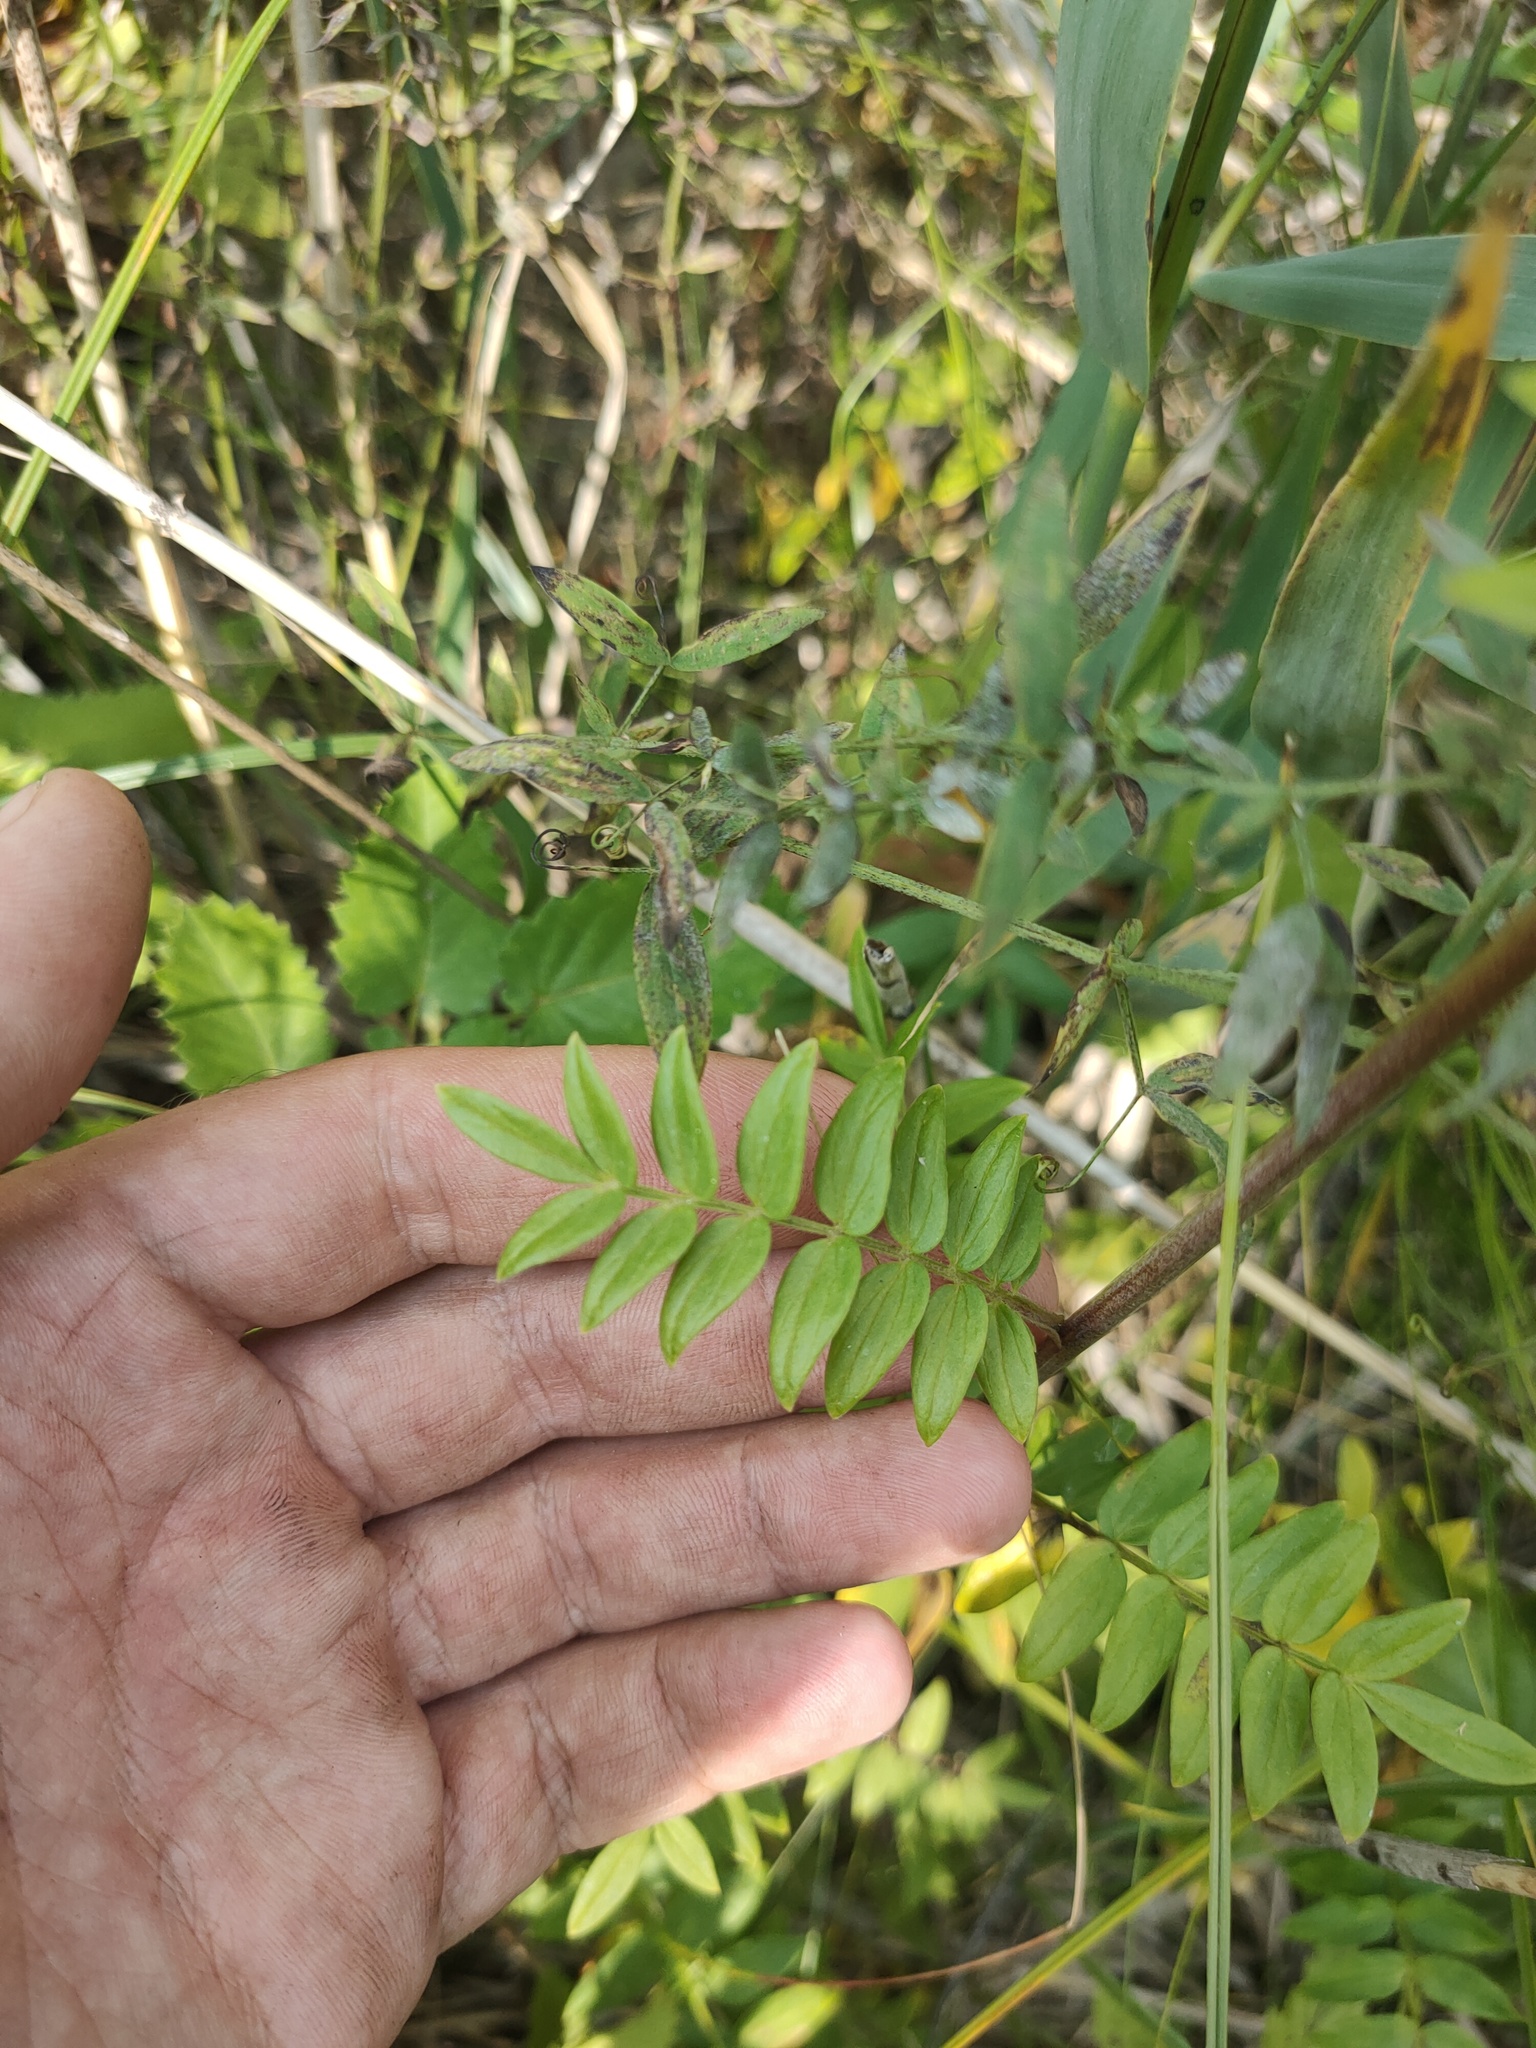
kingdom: Plantae
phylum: Tracheophyta
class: Magnoliopsida
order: Ericales
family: Polemoniaceae
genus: Polemonium
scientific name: Polemonium caeruleum
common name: Jacob's-ladder
